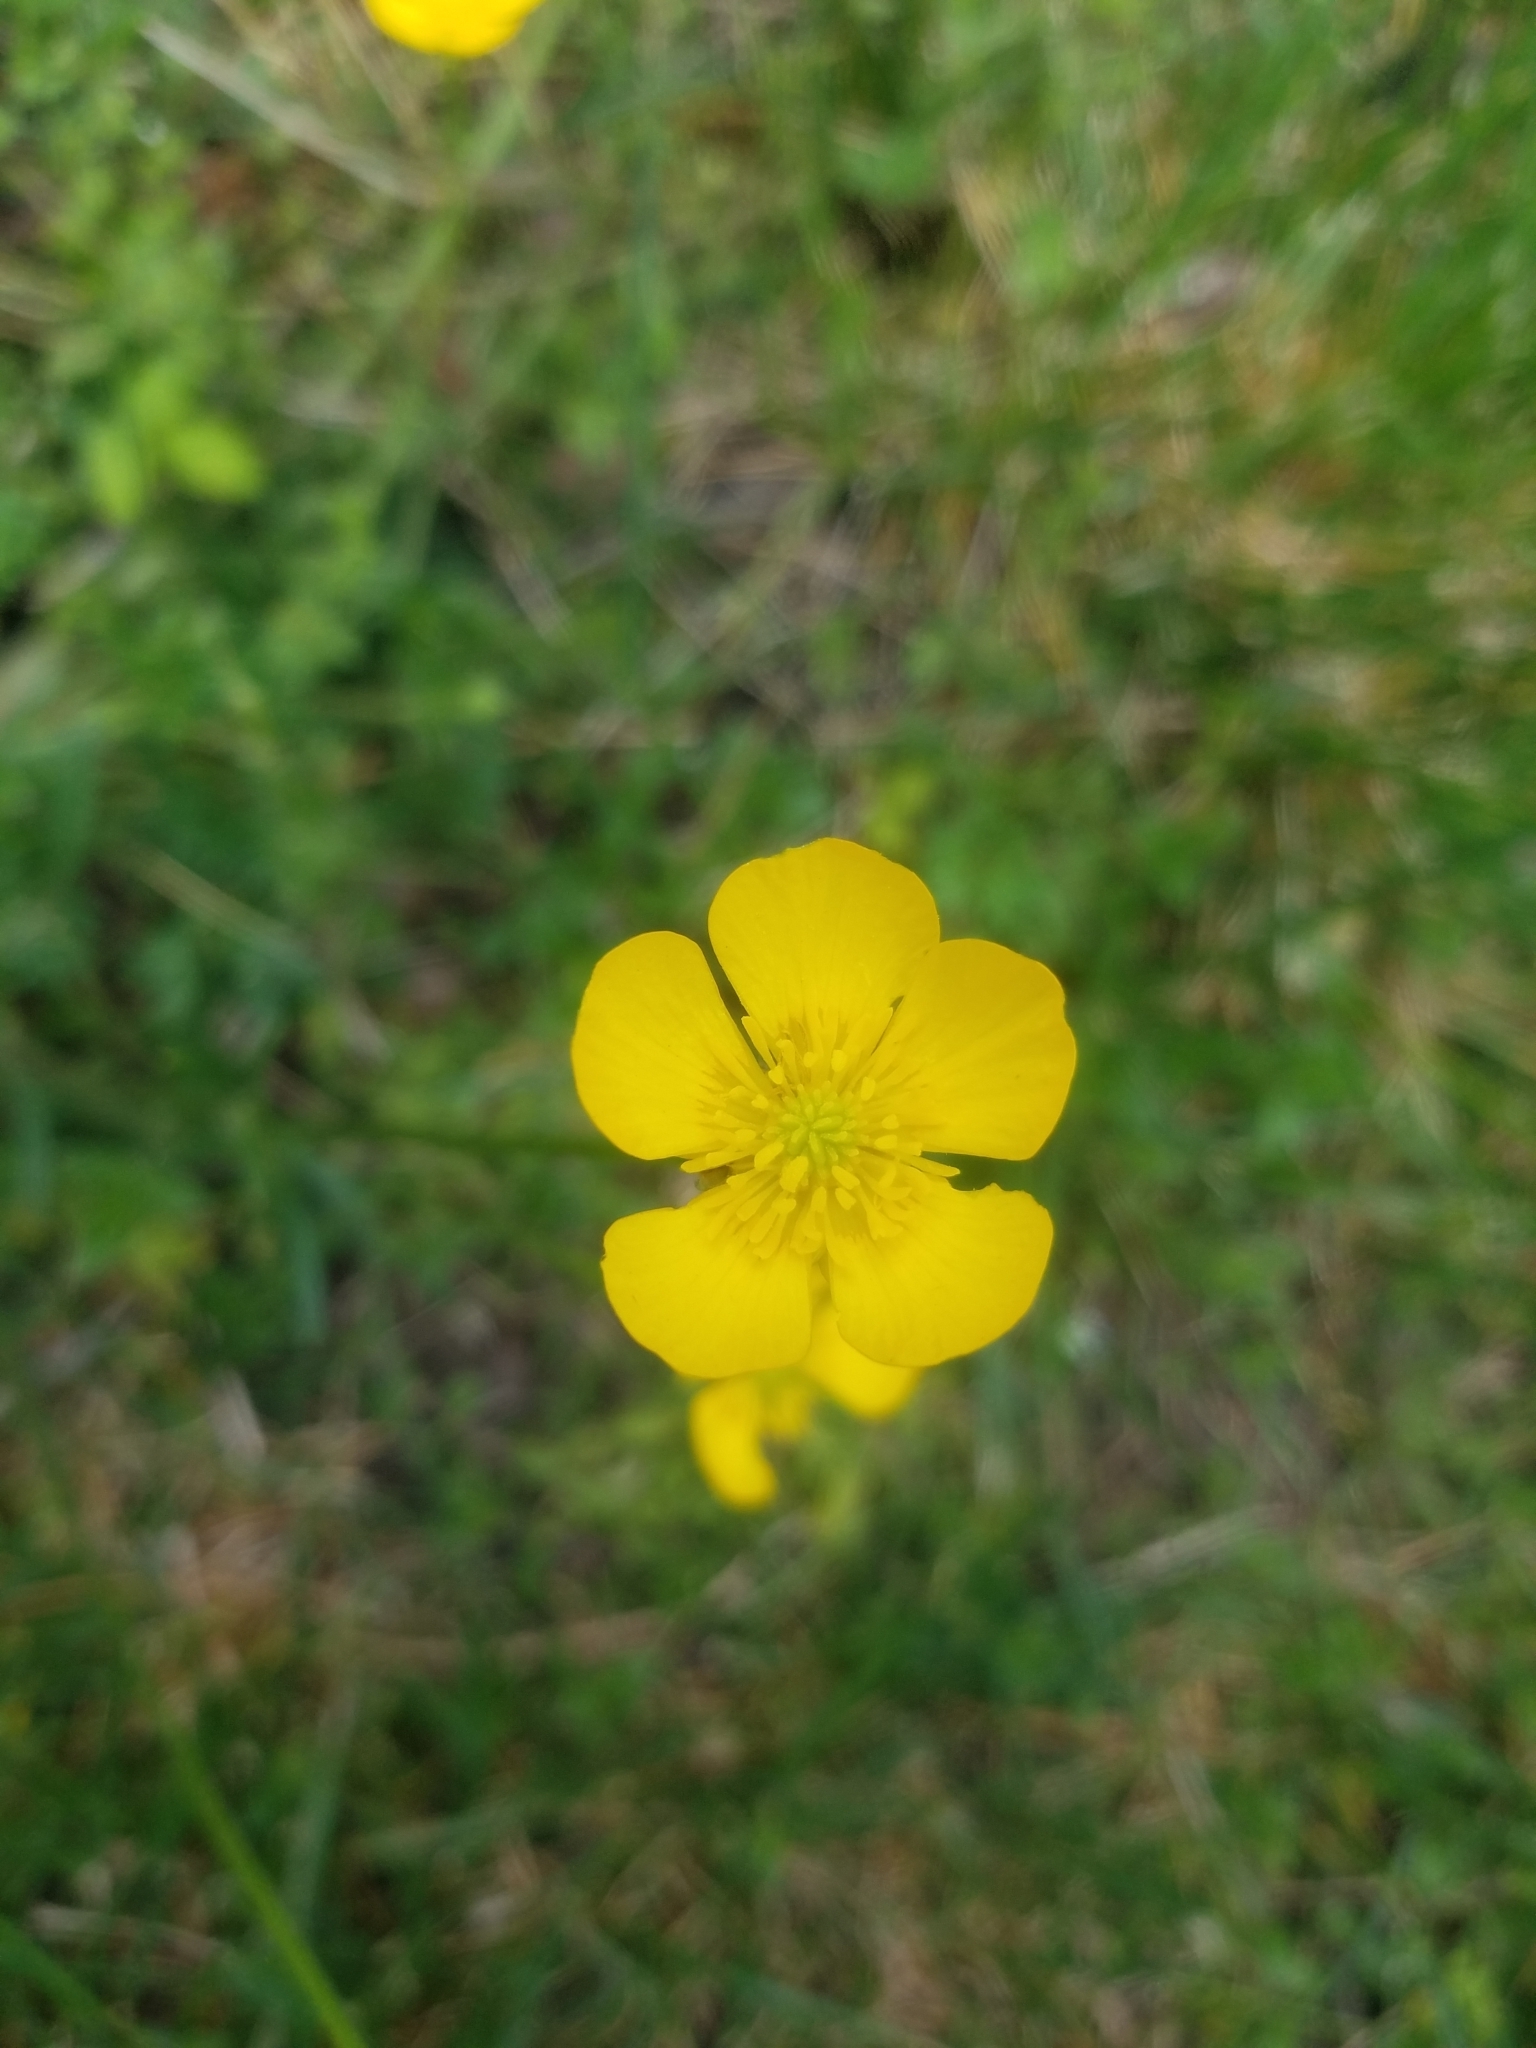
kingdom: Plantae
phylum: Tracheophyta
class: Magnoliopsida
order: Ranunculales
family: Ranunculaceae
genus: Ranunculus
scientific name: Ranunculus bulbosus
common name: Bulbous buttercup
